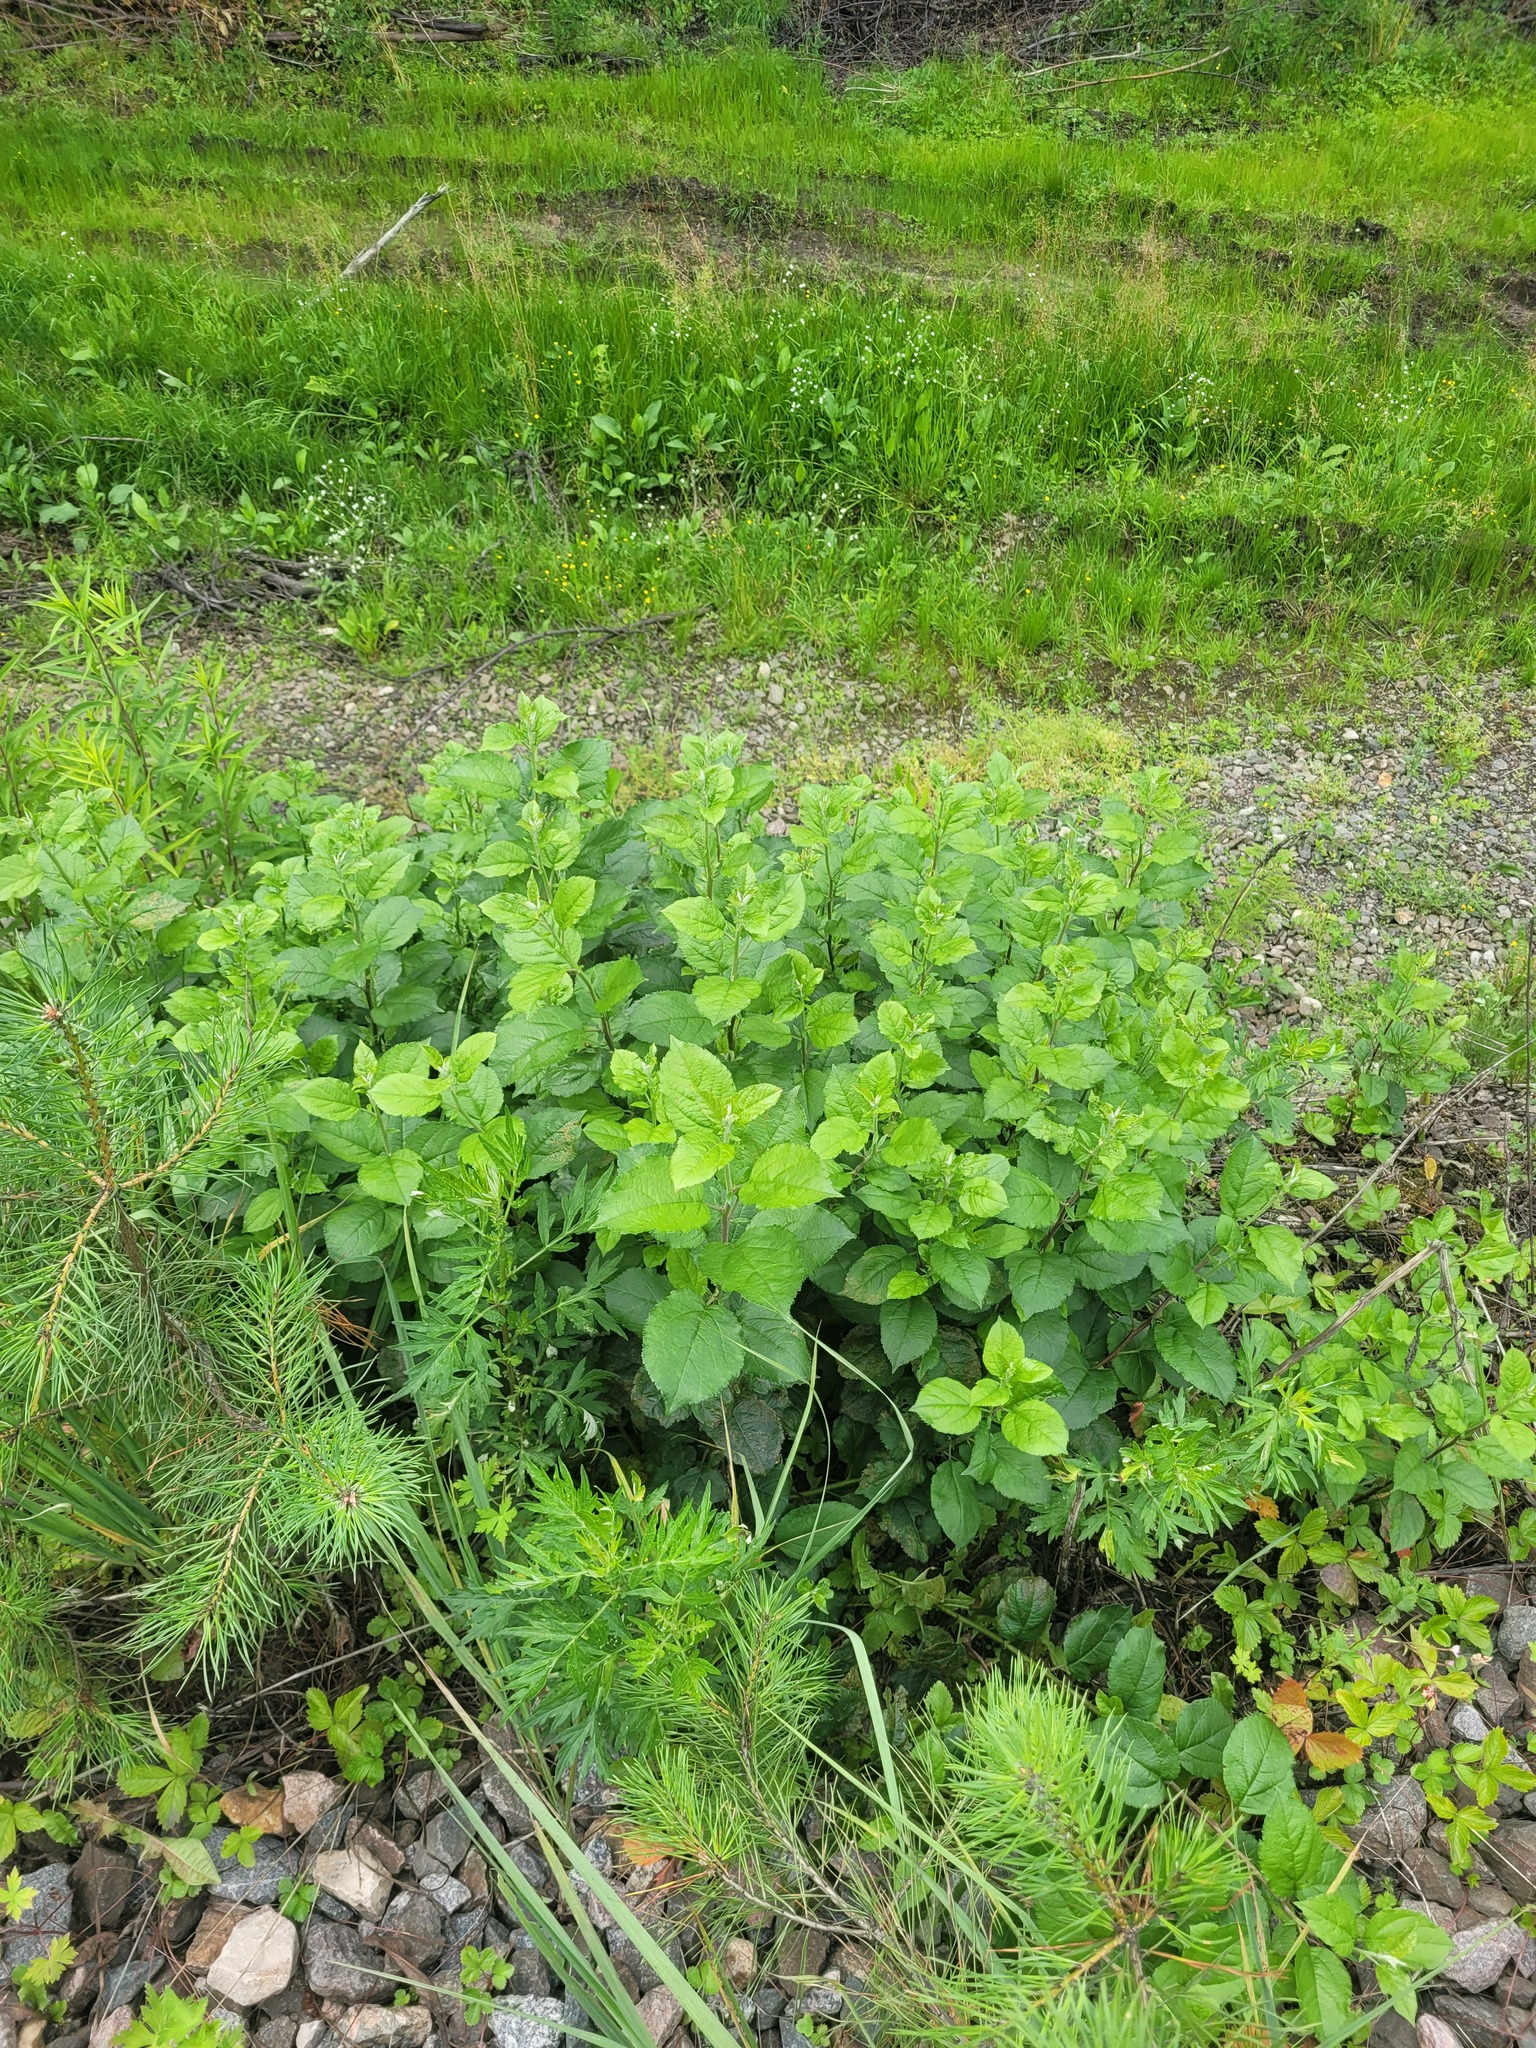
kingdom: Plantae
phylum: Tracheophyta
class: Magnoliopsida
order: Rosales
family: Rosaceae
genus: Malus
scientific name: Malus domestica
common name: Apple
